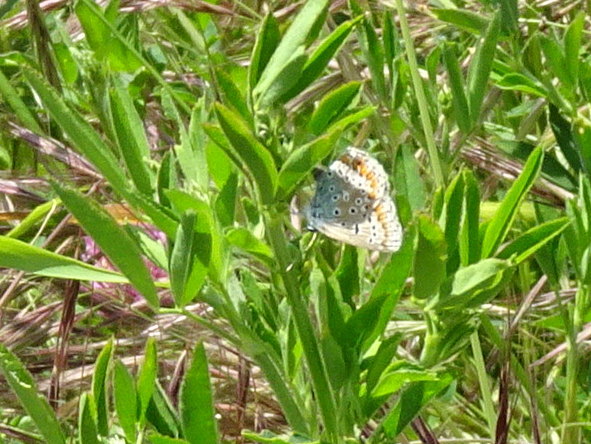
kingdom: Animalia
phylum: Arthropoda
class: Insecta
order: Lepidoptera
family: Lycaenidae
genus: Polyommatus
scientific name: Polyommatus icarus
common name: Common blue
